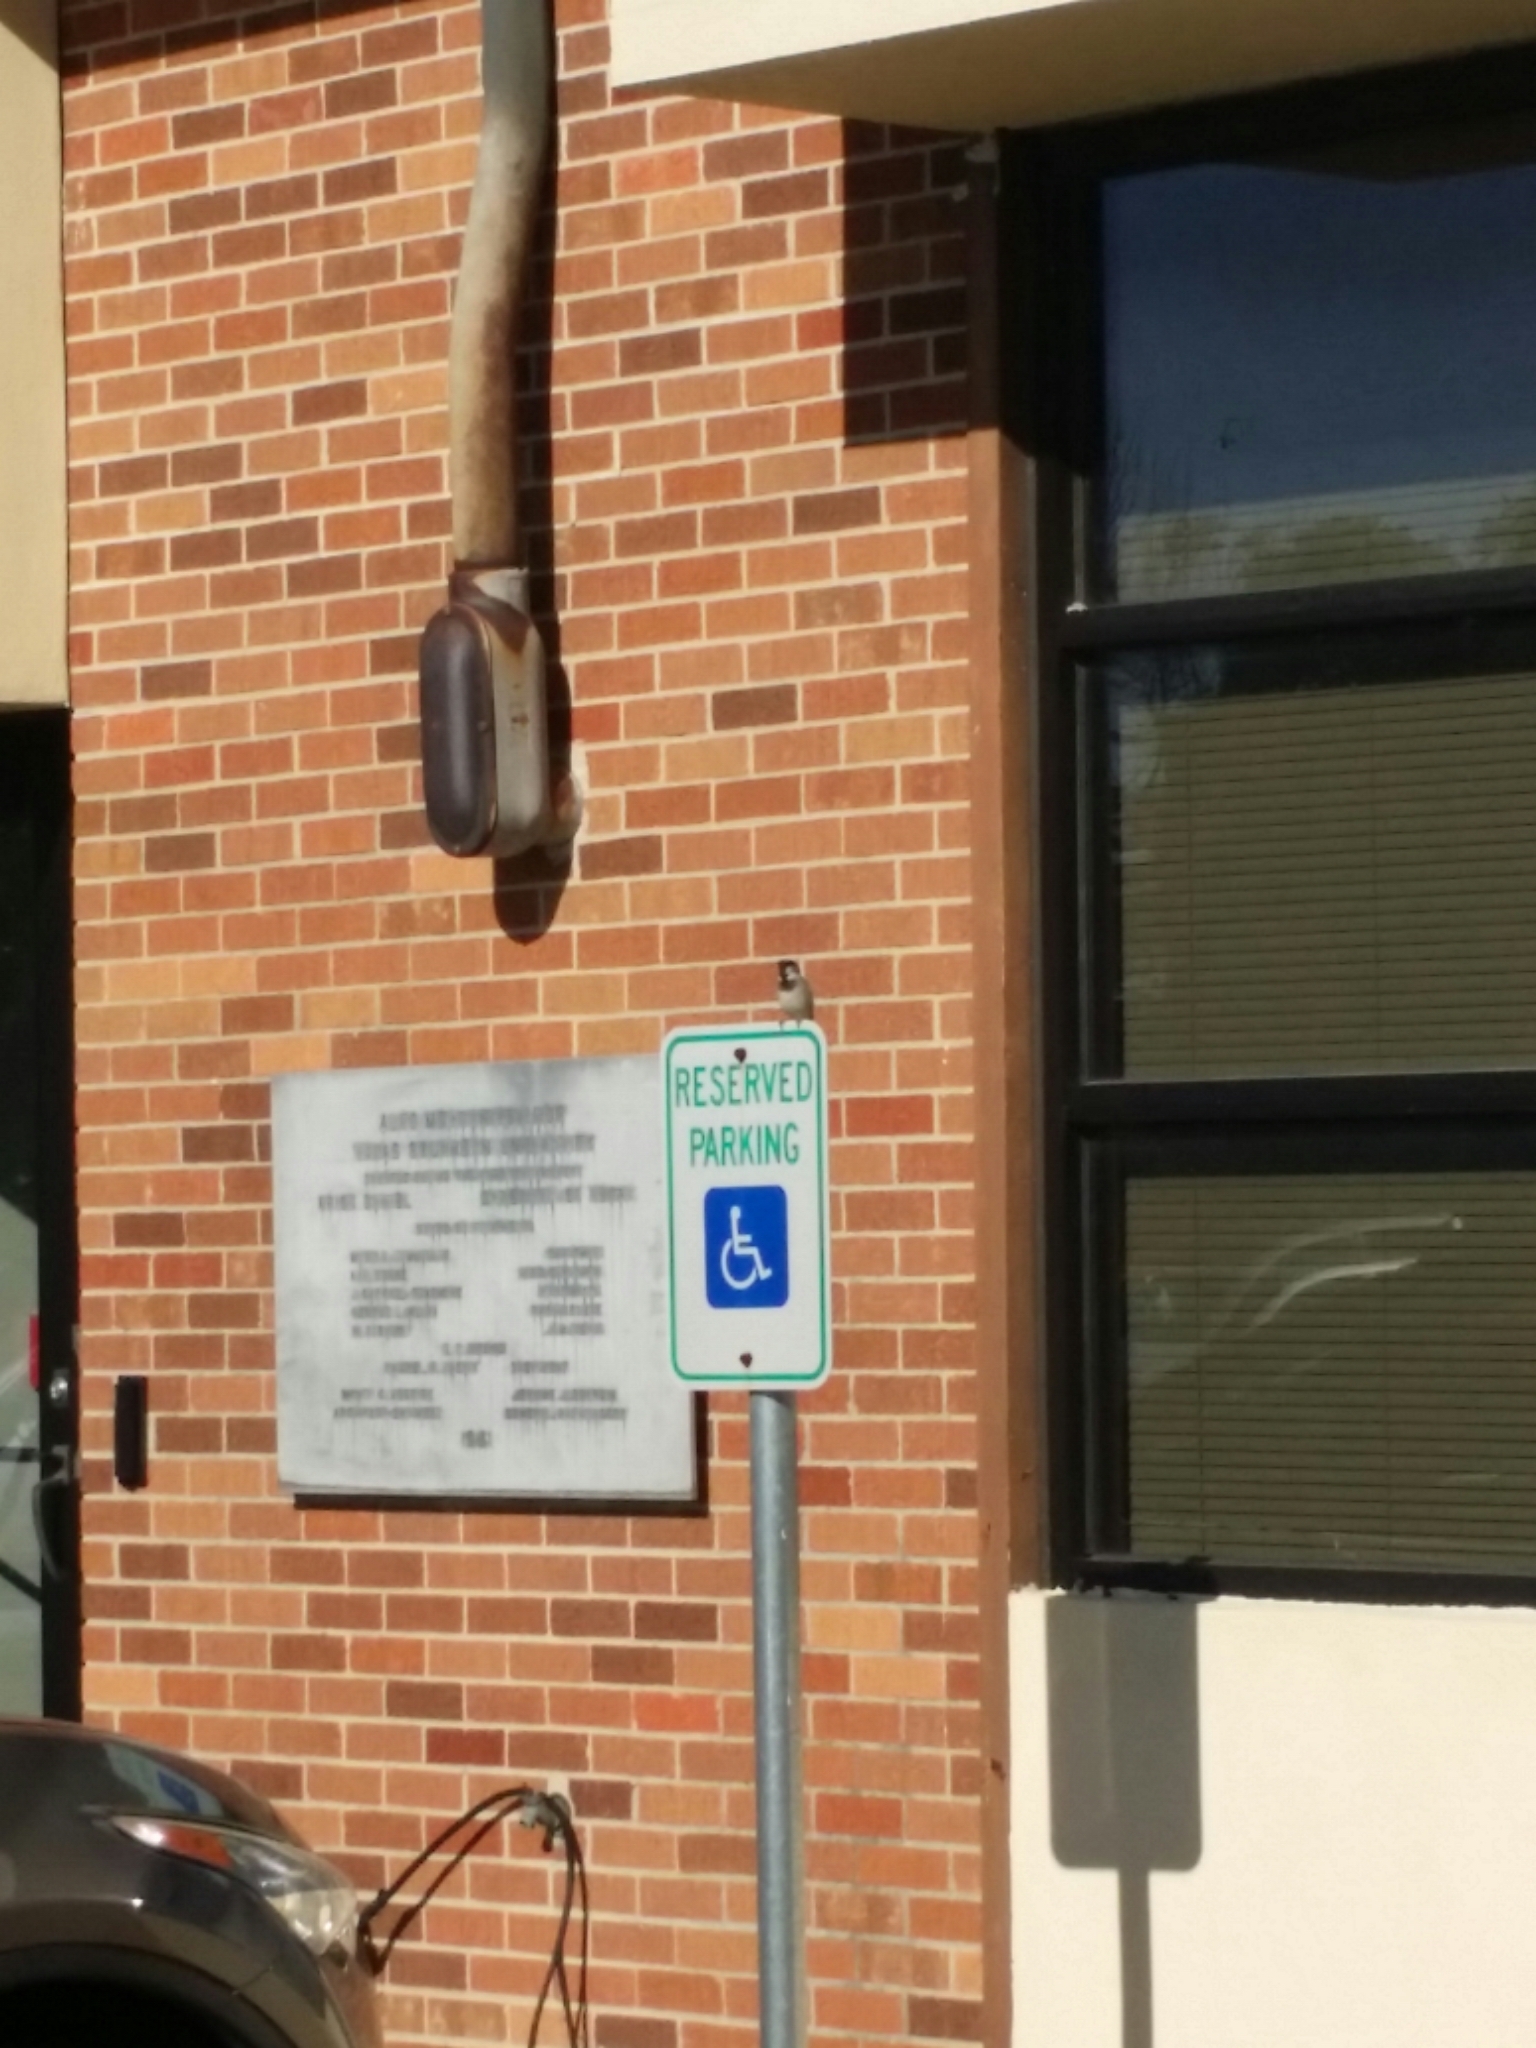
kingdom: Animalia
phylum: Chordata
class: Aves
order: Passeriformes
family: Passeridae
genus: Passer
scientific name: Passer domesticus
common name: House sparrow
